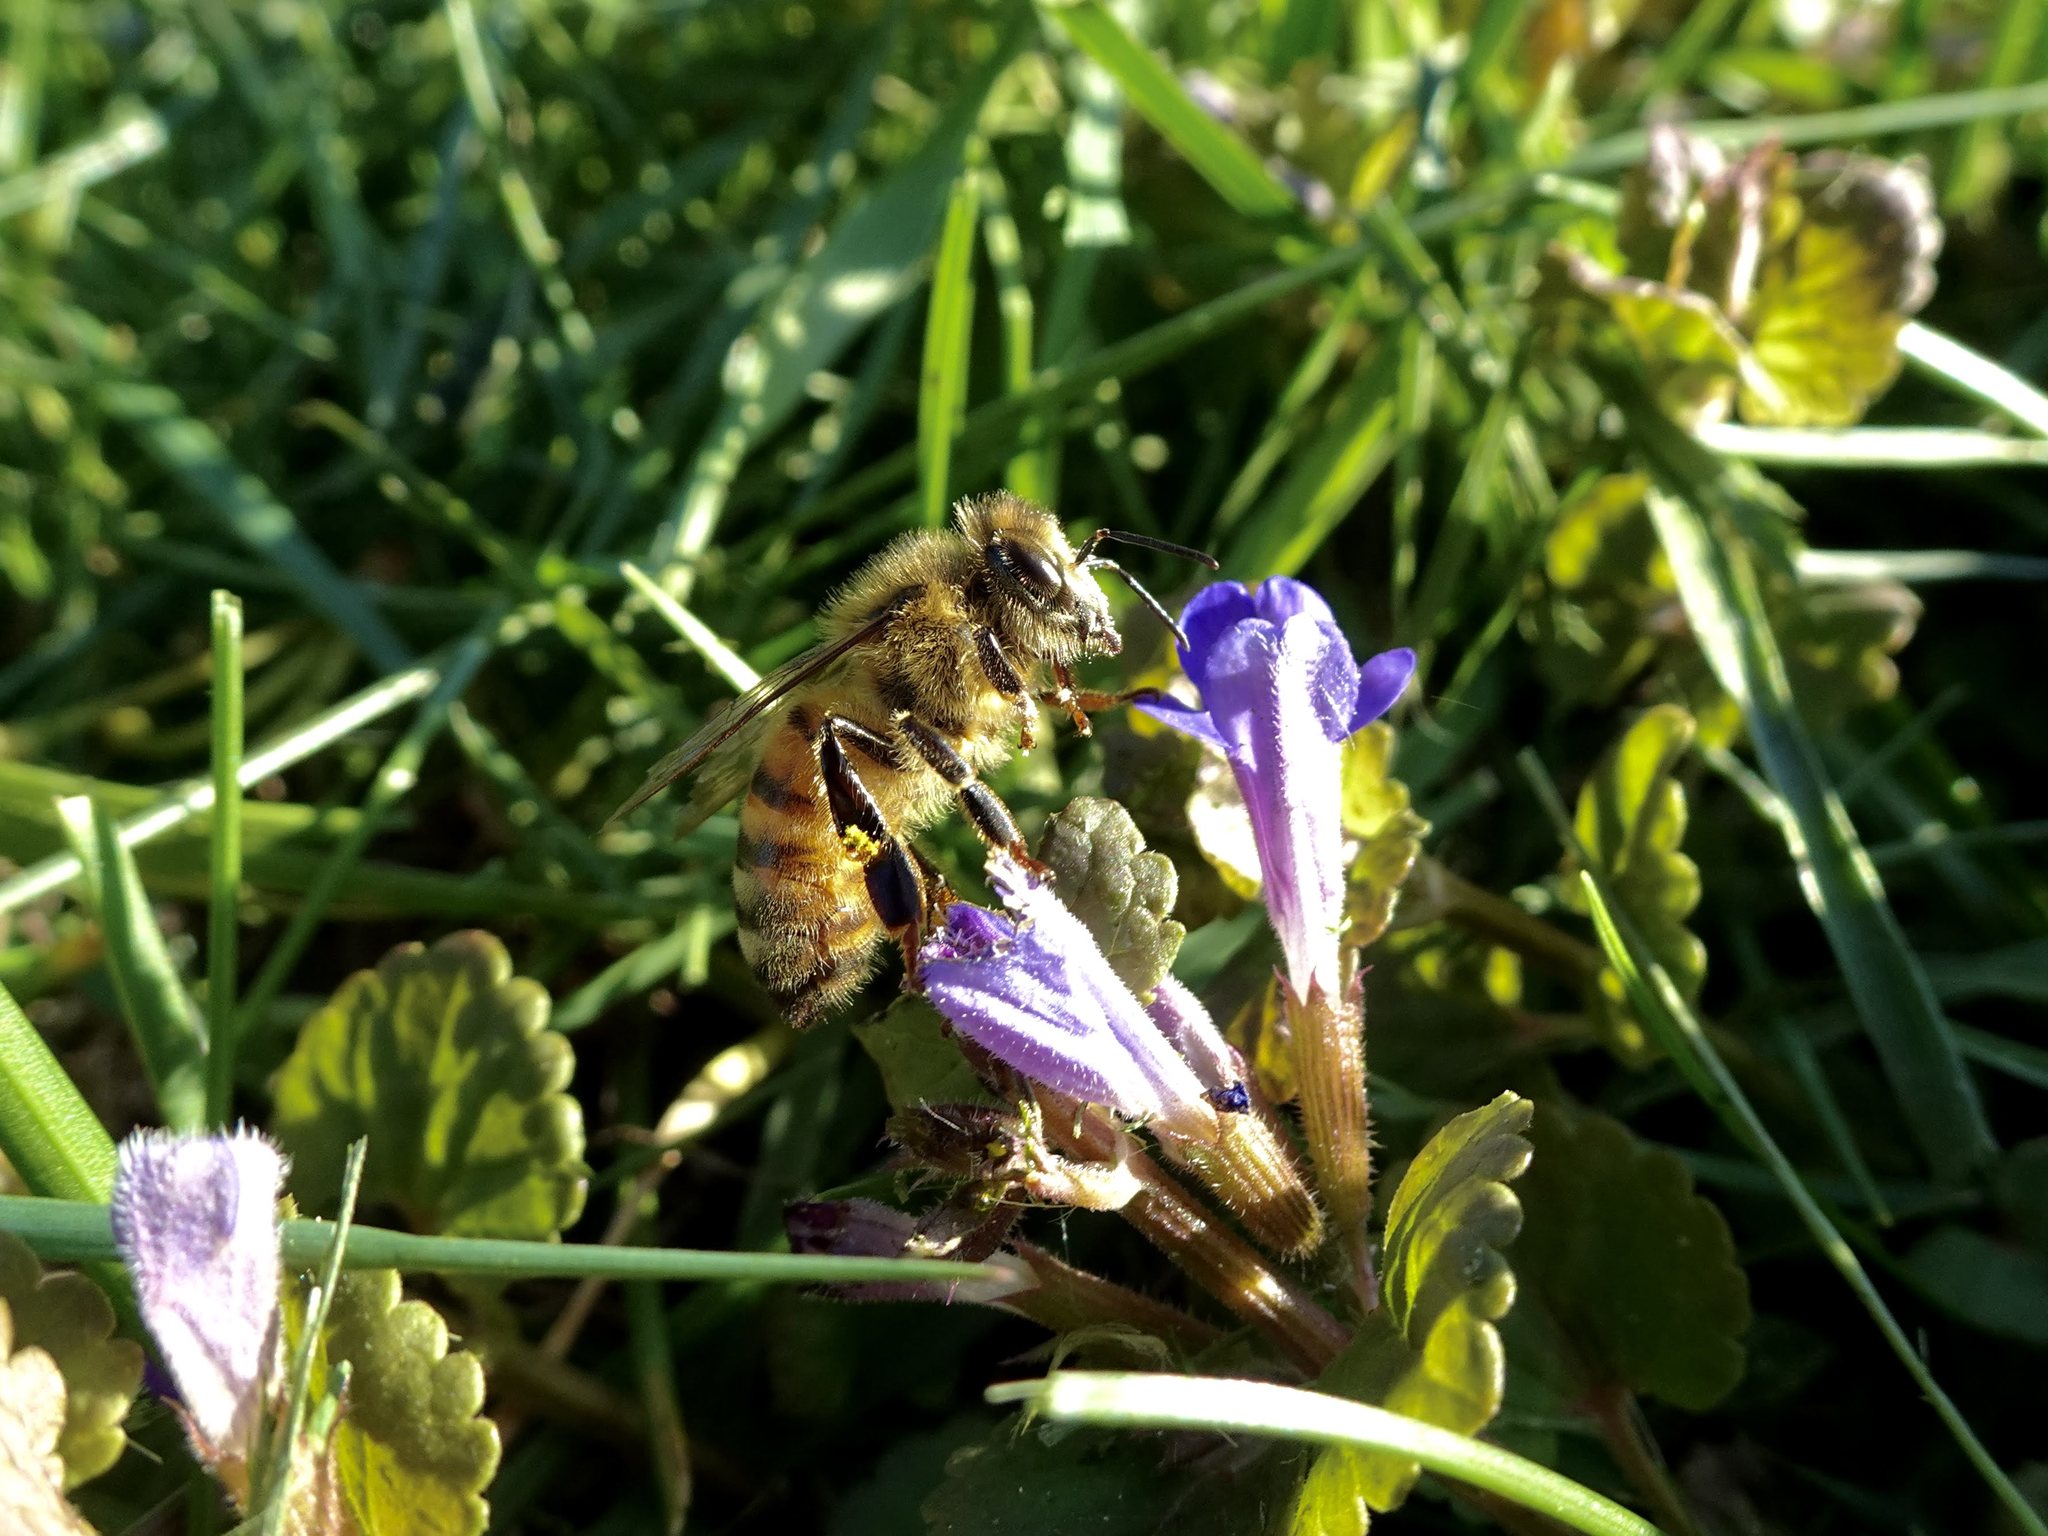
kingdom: Animalia
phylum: Arthropoda
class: Insecta
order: Hymenoptera
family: Apidae
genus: Apis
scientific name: Apis mellifera
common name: Honey bee
